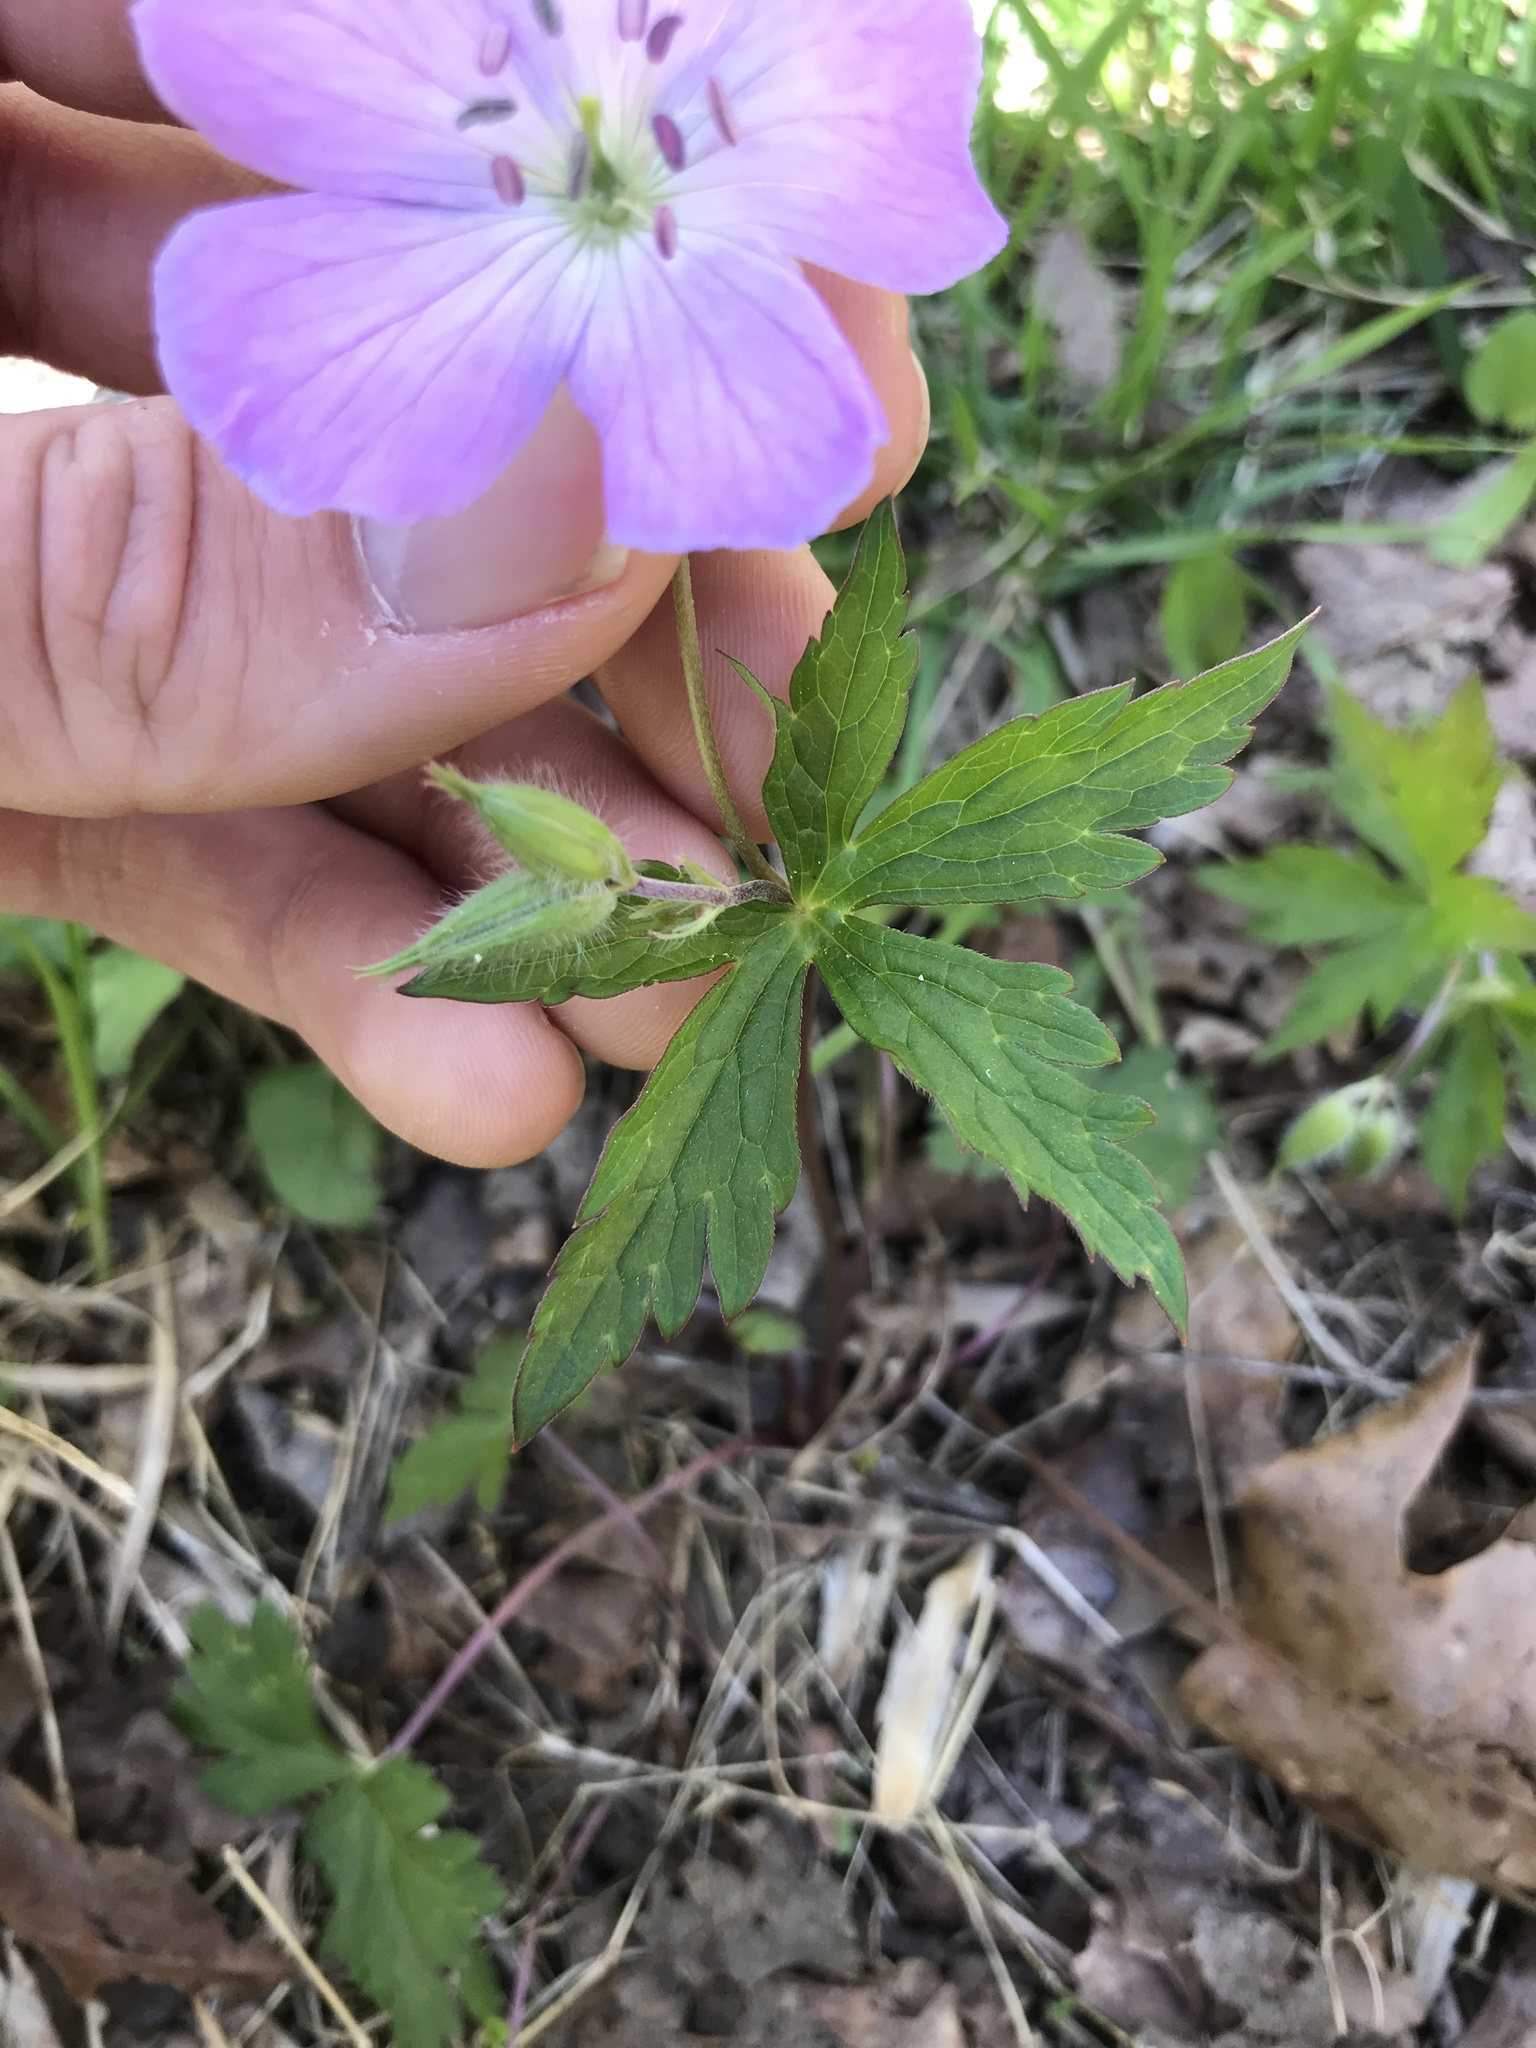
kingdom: Plantae
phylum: Tracheophyta
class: Magnoliopsida
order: Geraniales
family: Geraniaceae
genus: Geranium
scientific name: Geranium maculatum
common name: Spotted geranium
